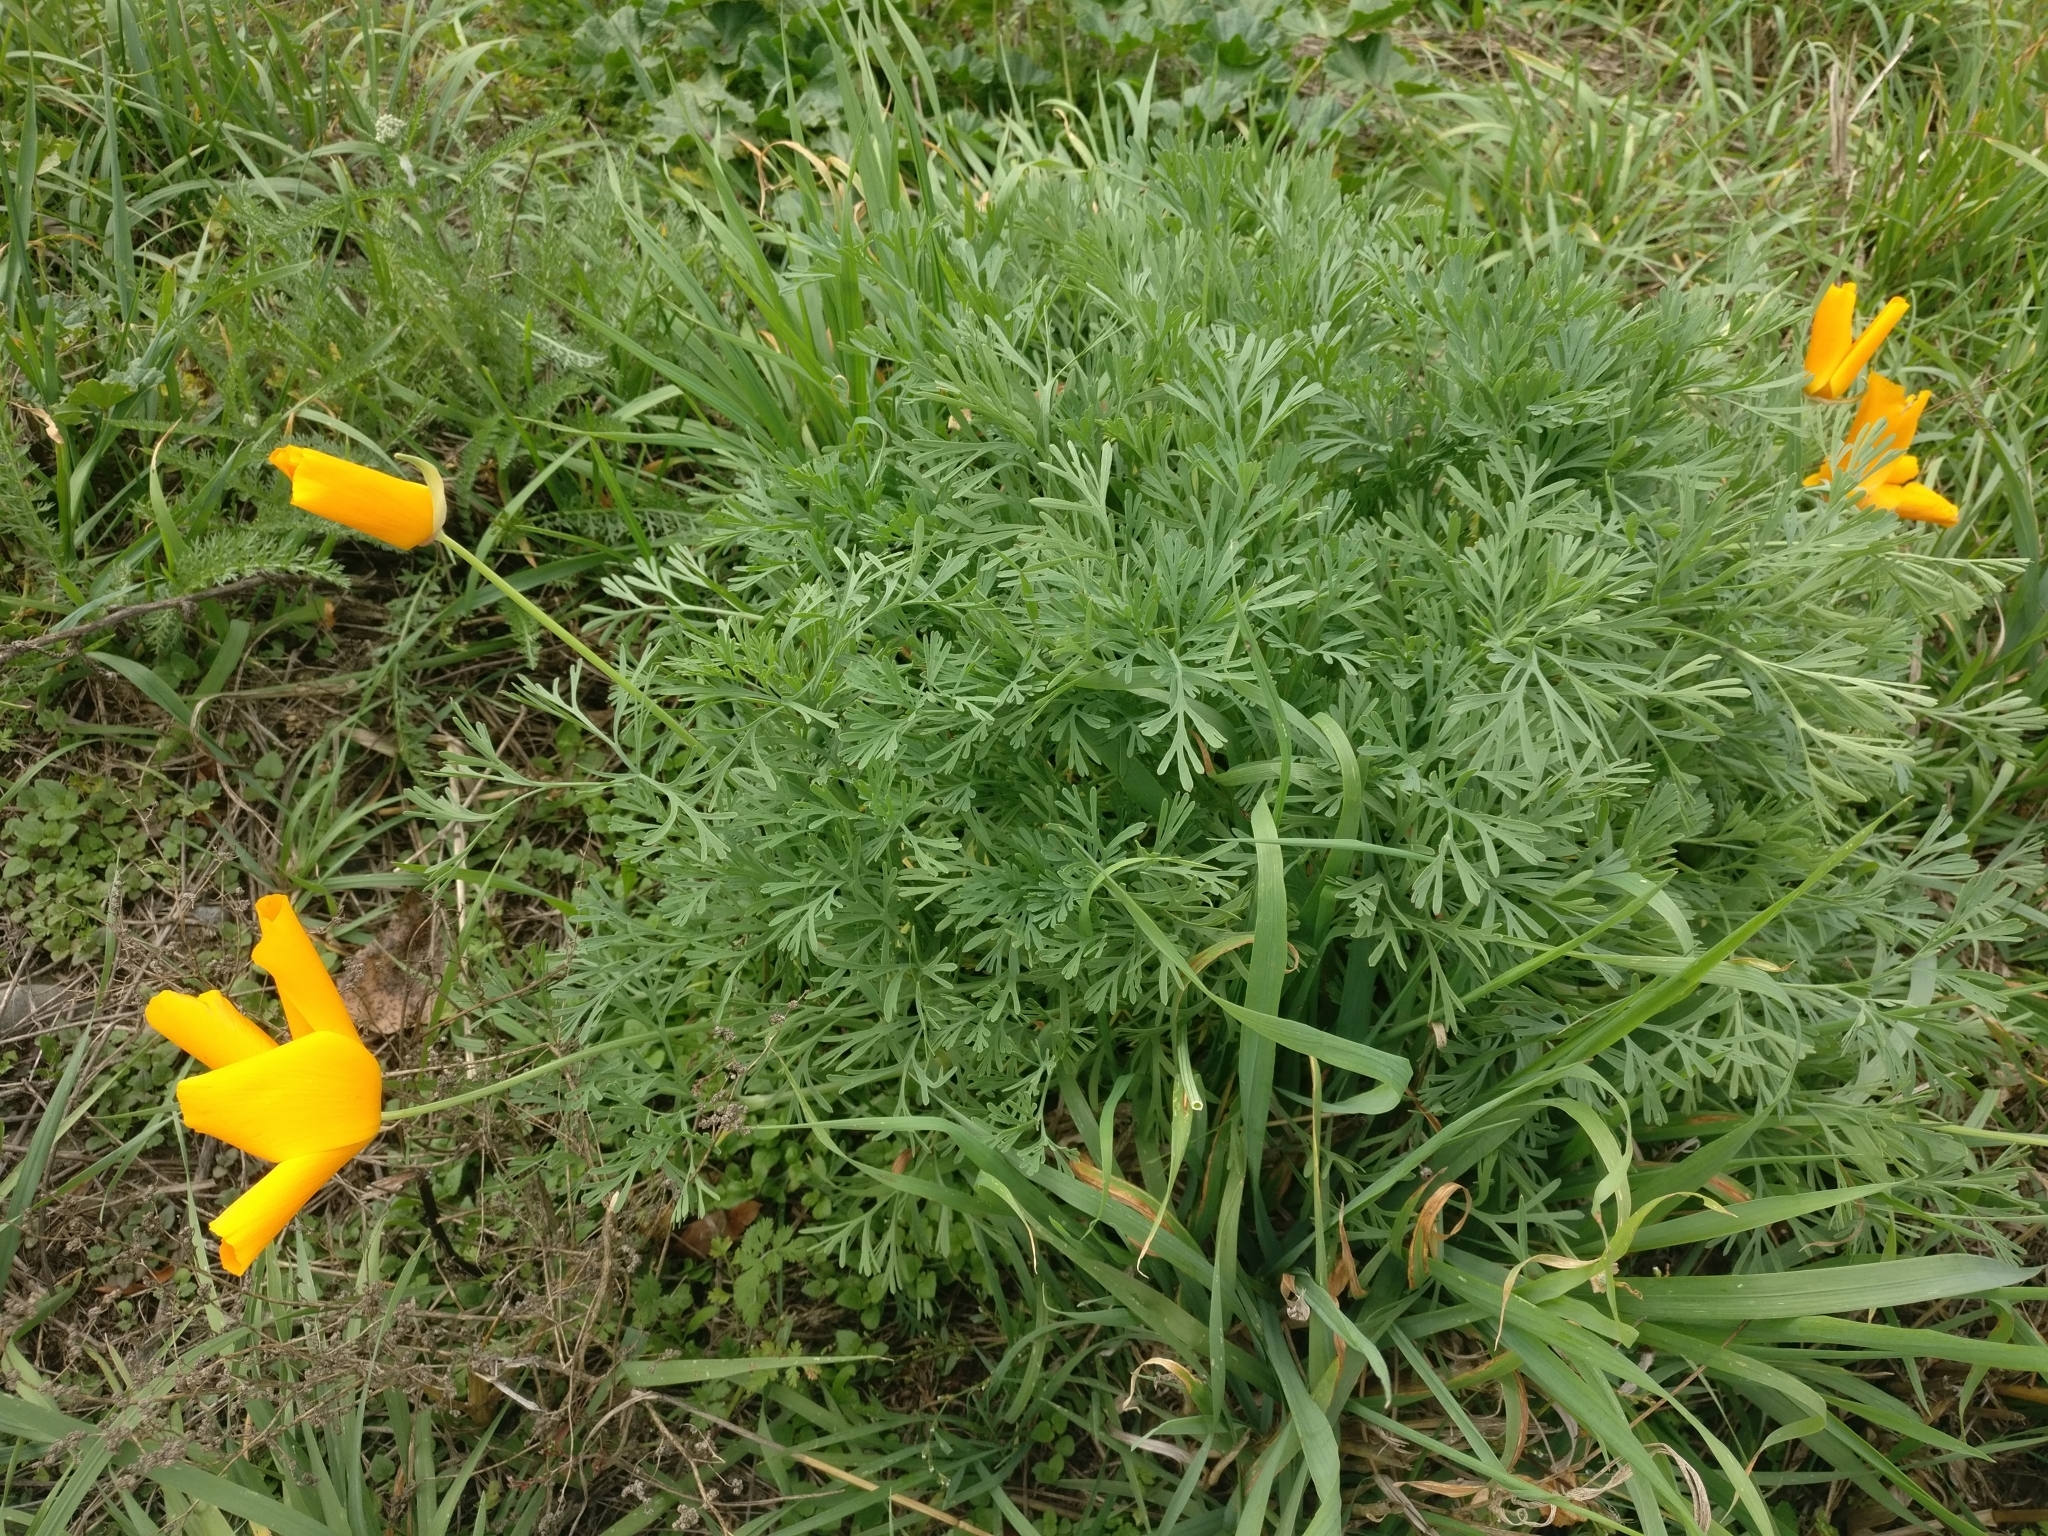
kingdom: Plantae
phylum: Tracheophyta
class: Magnoliopsida
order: Ranunculales
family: Papaveraceae
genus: Eschscholzia
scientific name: Eschscholzia californica
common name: California poppy
